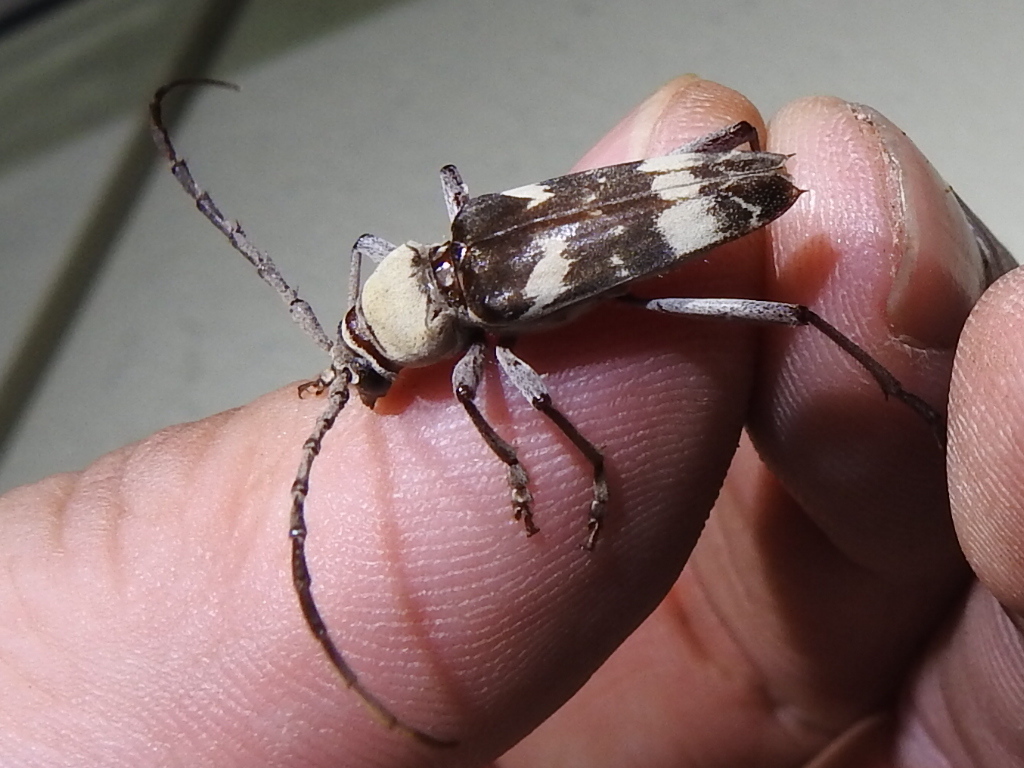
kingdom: Animalia
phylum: Arthropoda
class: Insecta
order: Coleoptera
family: Cerambycidae
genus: Megacyllene
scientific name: Megacyllene antennata
